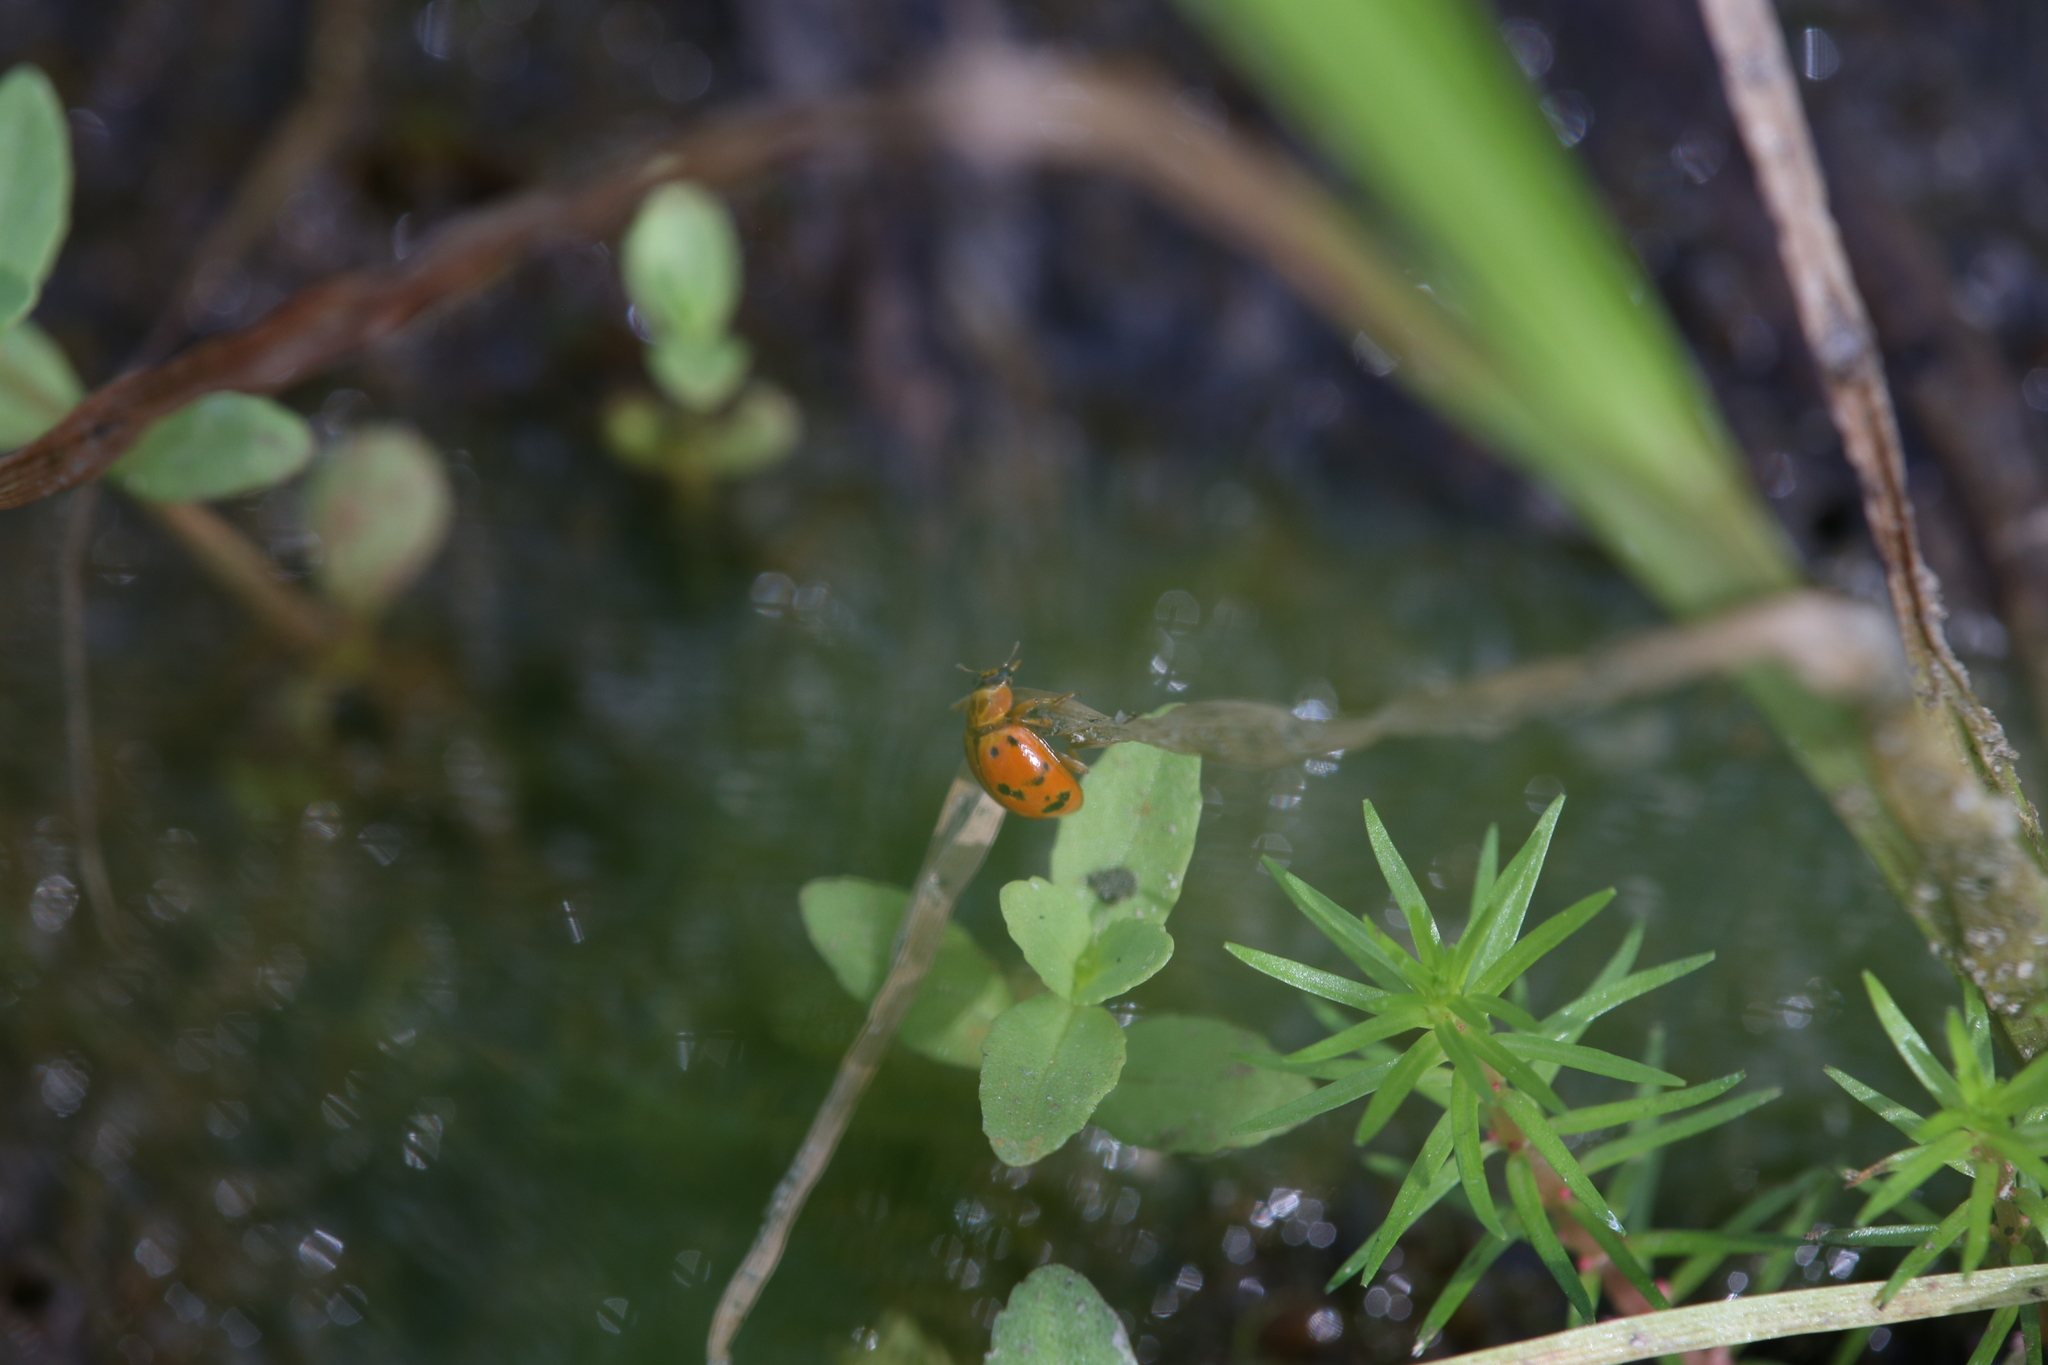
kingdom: Animalia
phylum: Arthropoda
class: Insecta
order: Coleoptera
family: Coccinellidae
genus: Harmonia
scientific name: Harmonia octomaculata
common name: Lady beetle
